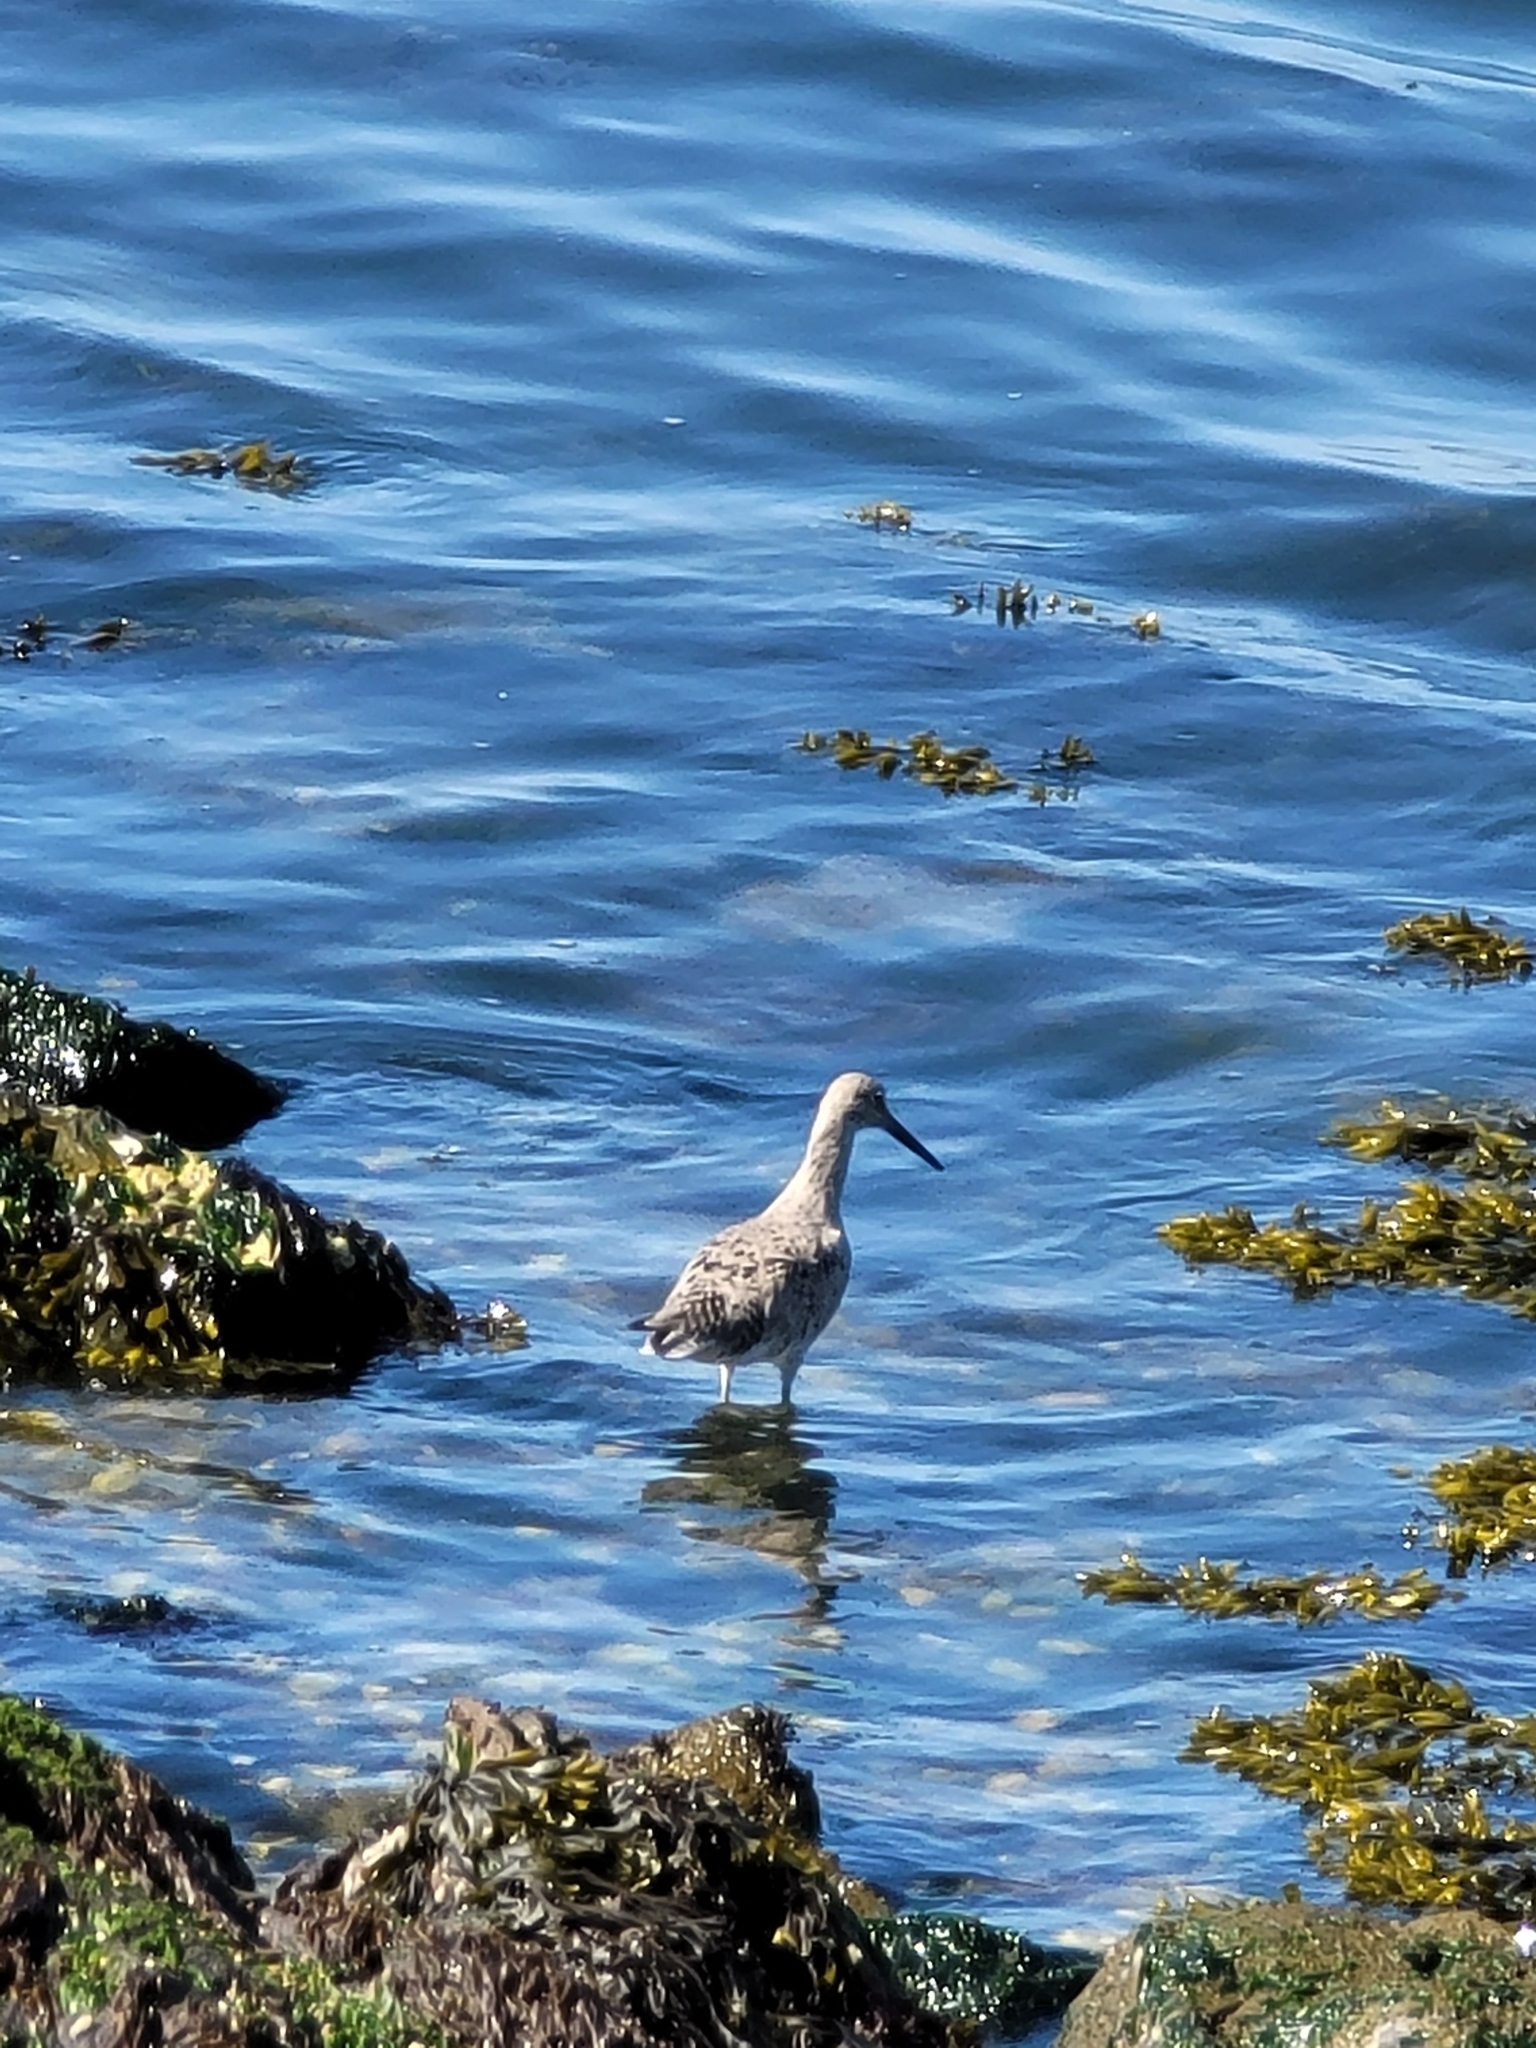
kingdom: Animalia
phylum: Chordata
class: Aves
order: Charadriiformes
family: Scolopacidae
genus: Tringa
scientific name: Tringa semipalmata
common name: Willet
